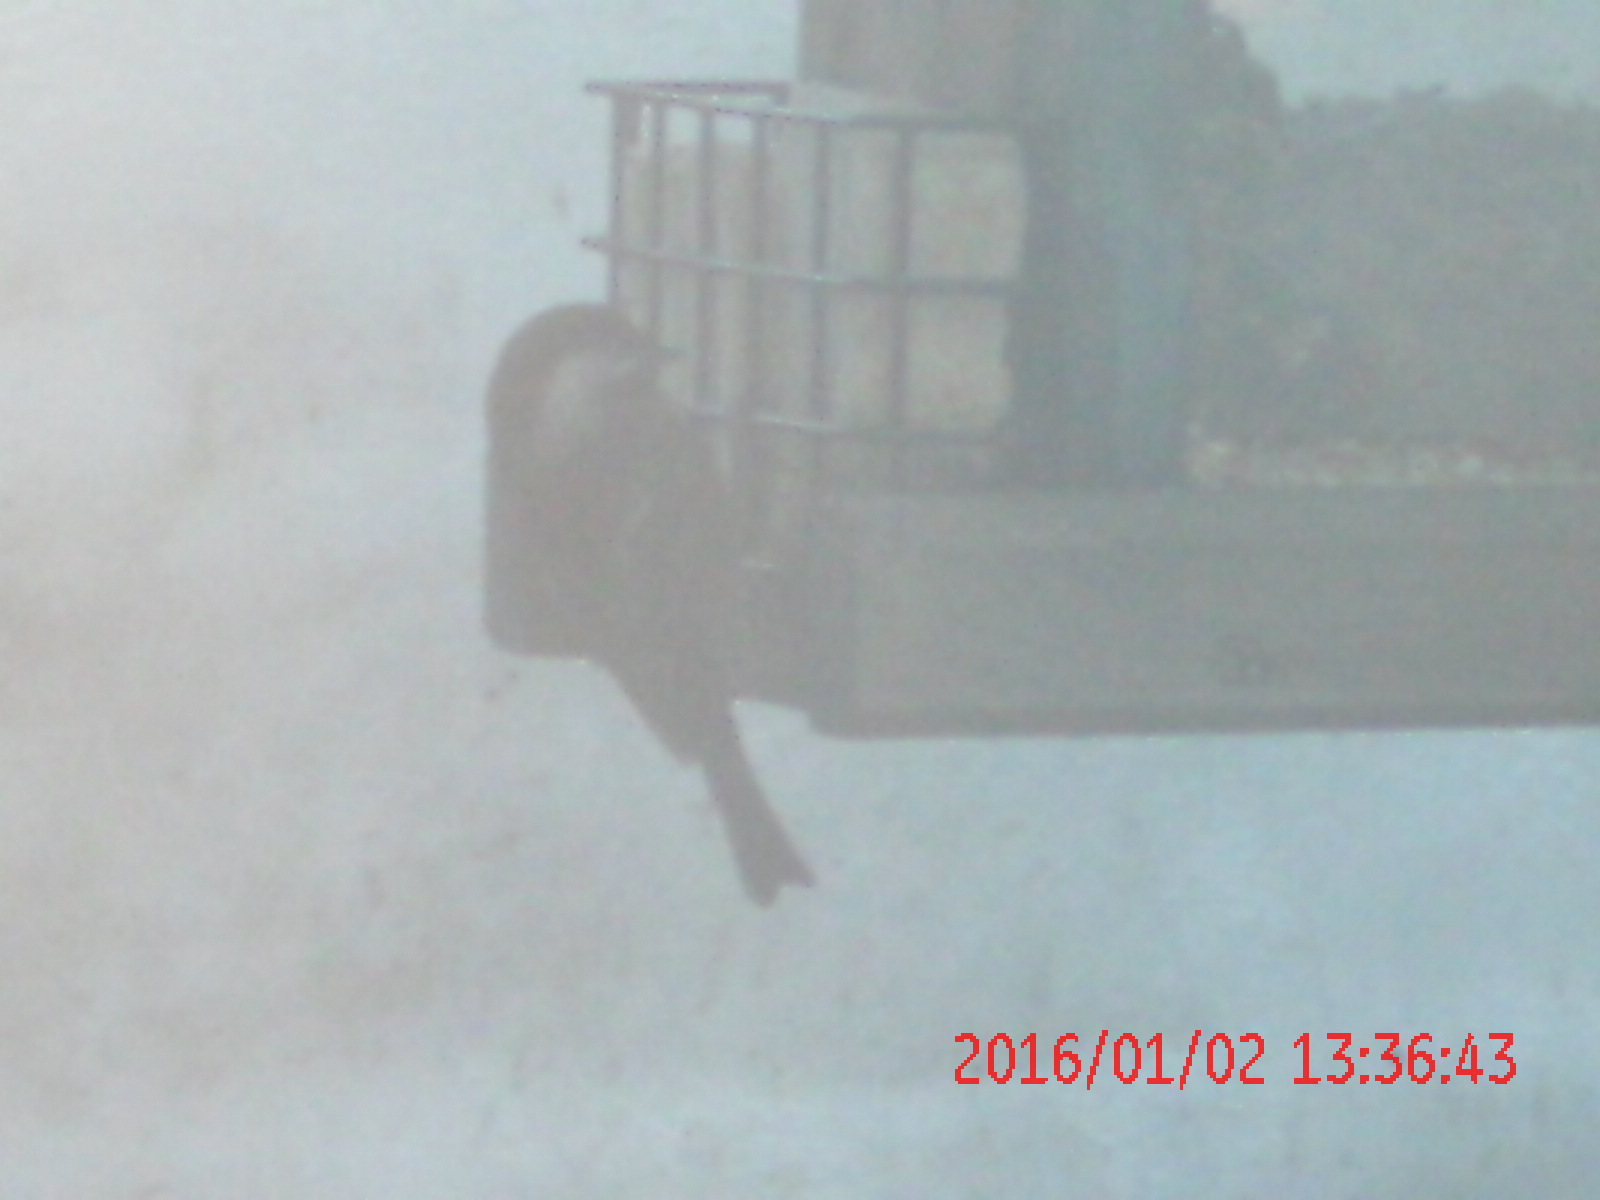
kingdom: Animalia
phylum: Chordata
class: Aves
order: Passeriformes
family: Paridae
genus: Poecile
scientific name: Poecile rufescens
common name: Chestnut-backed chickadee
